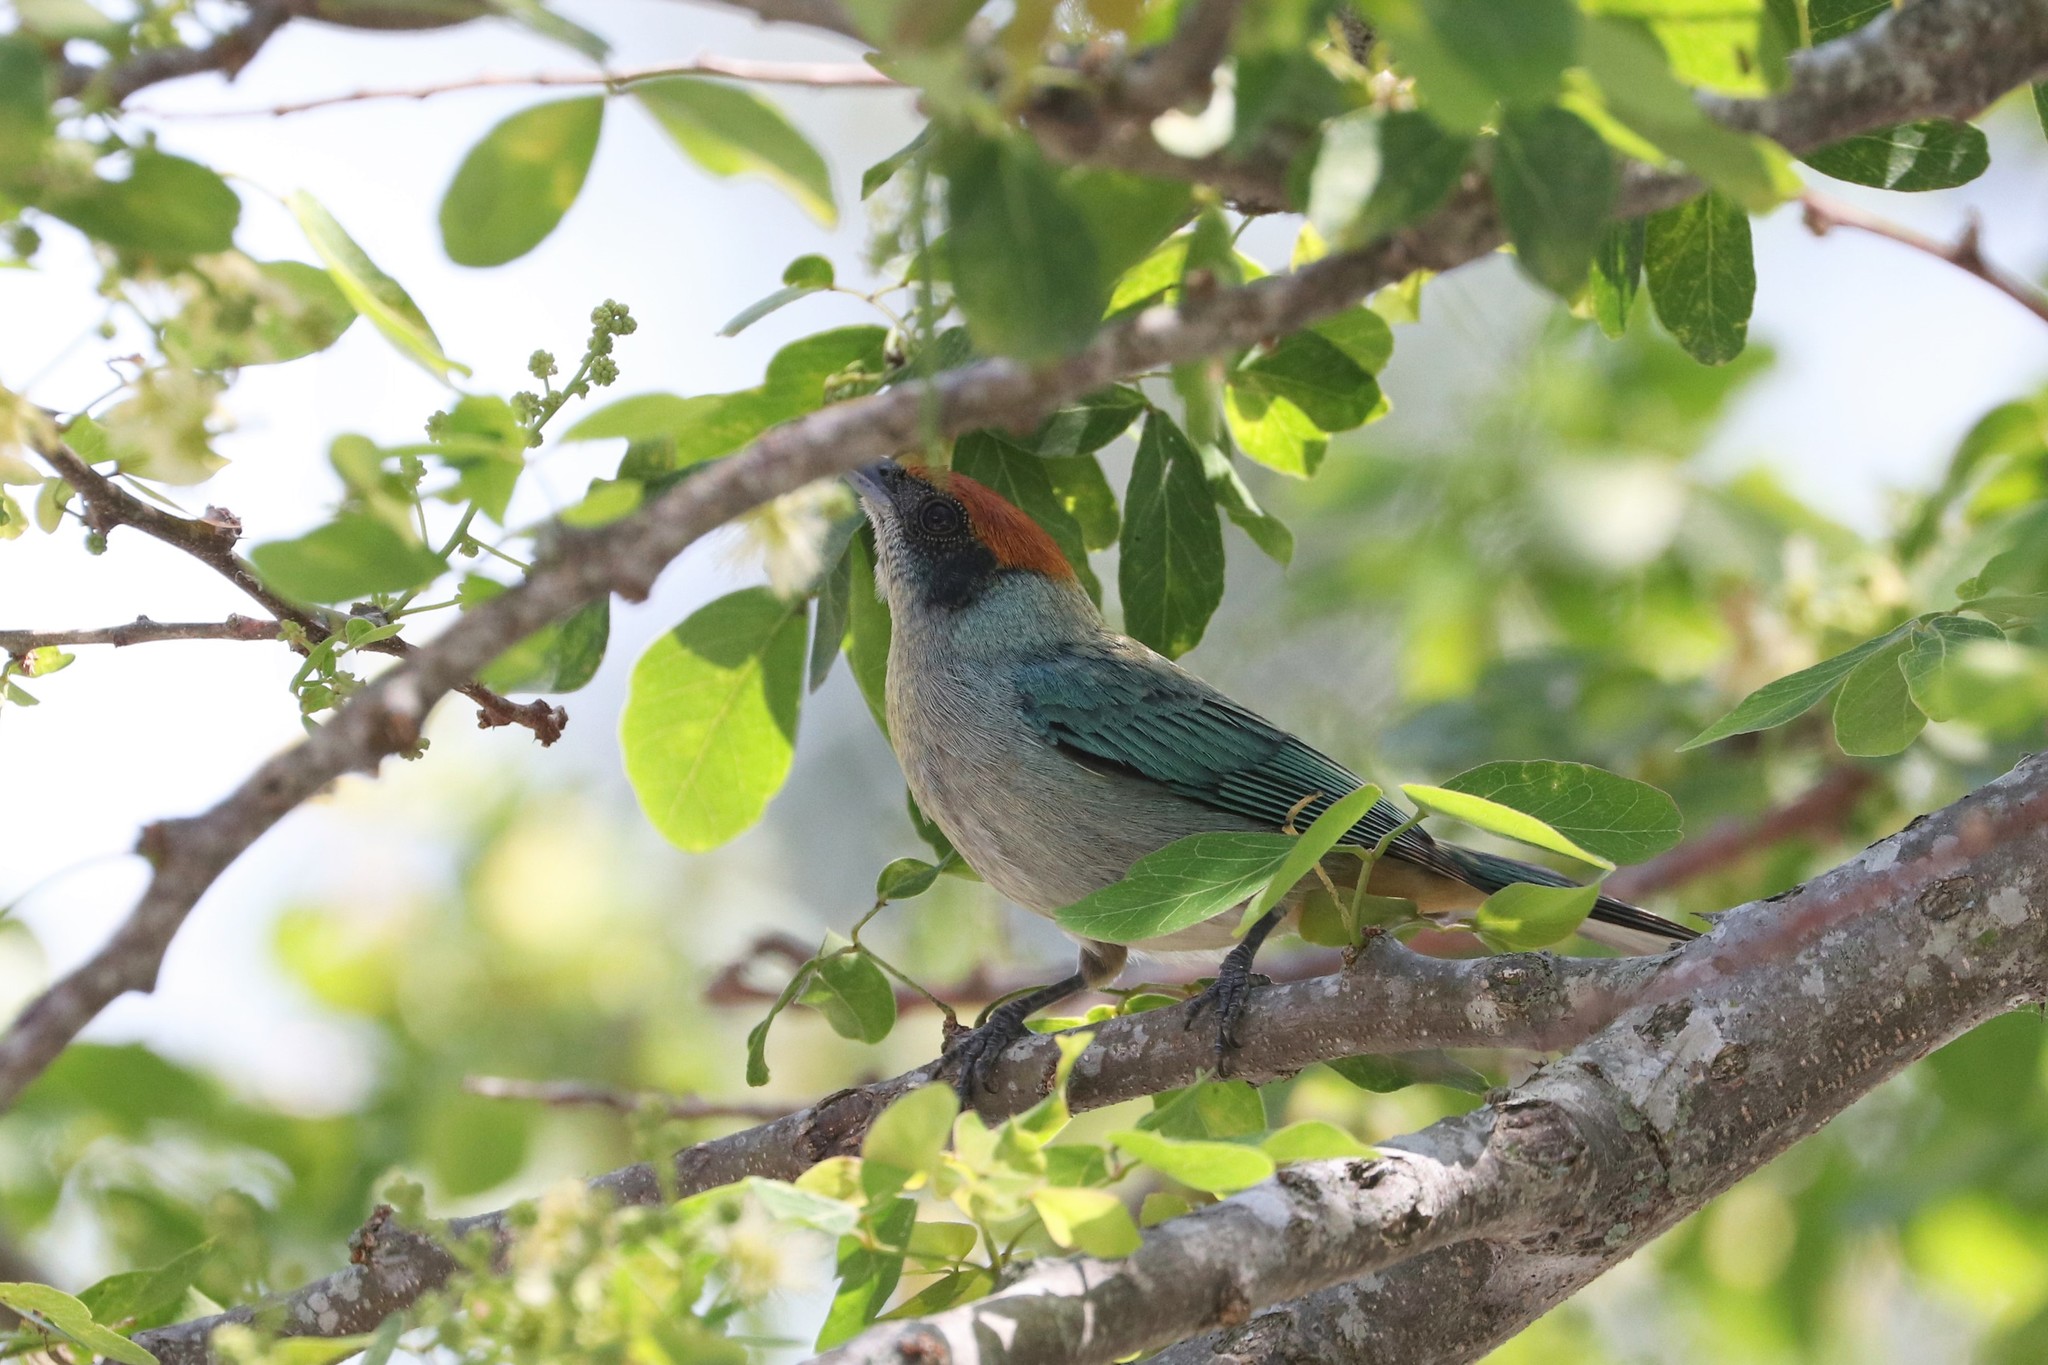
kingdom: Animalia
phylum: Chordata
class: Aves
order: Passeriformes
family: Thraupidae
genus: Stilpnia
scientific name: Stilpnia vitriolina
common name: Scrub tanager
